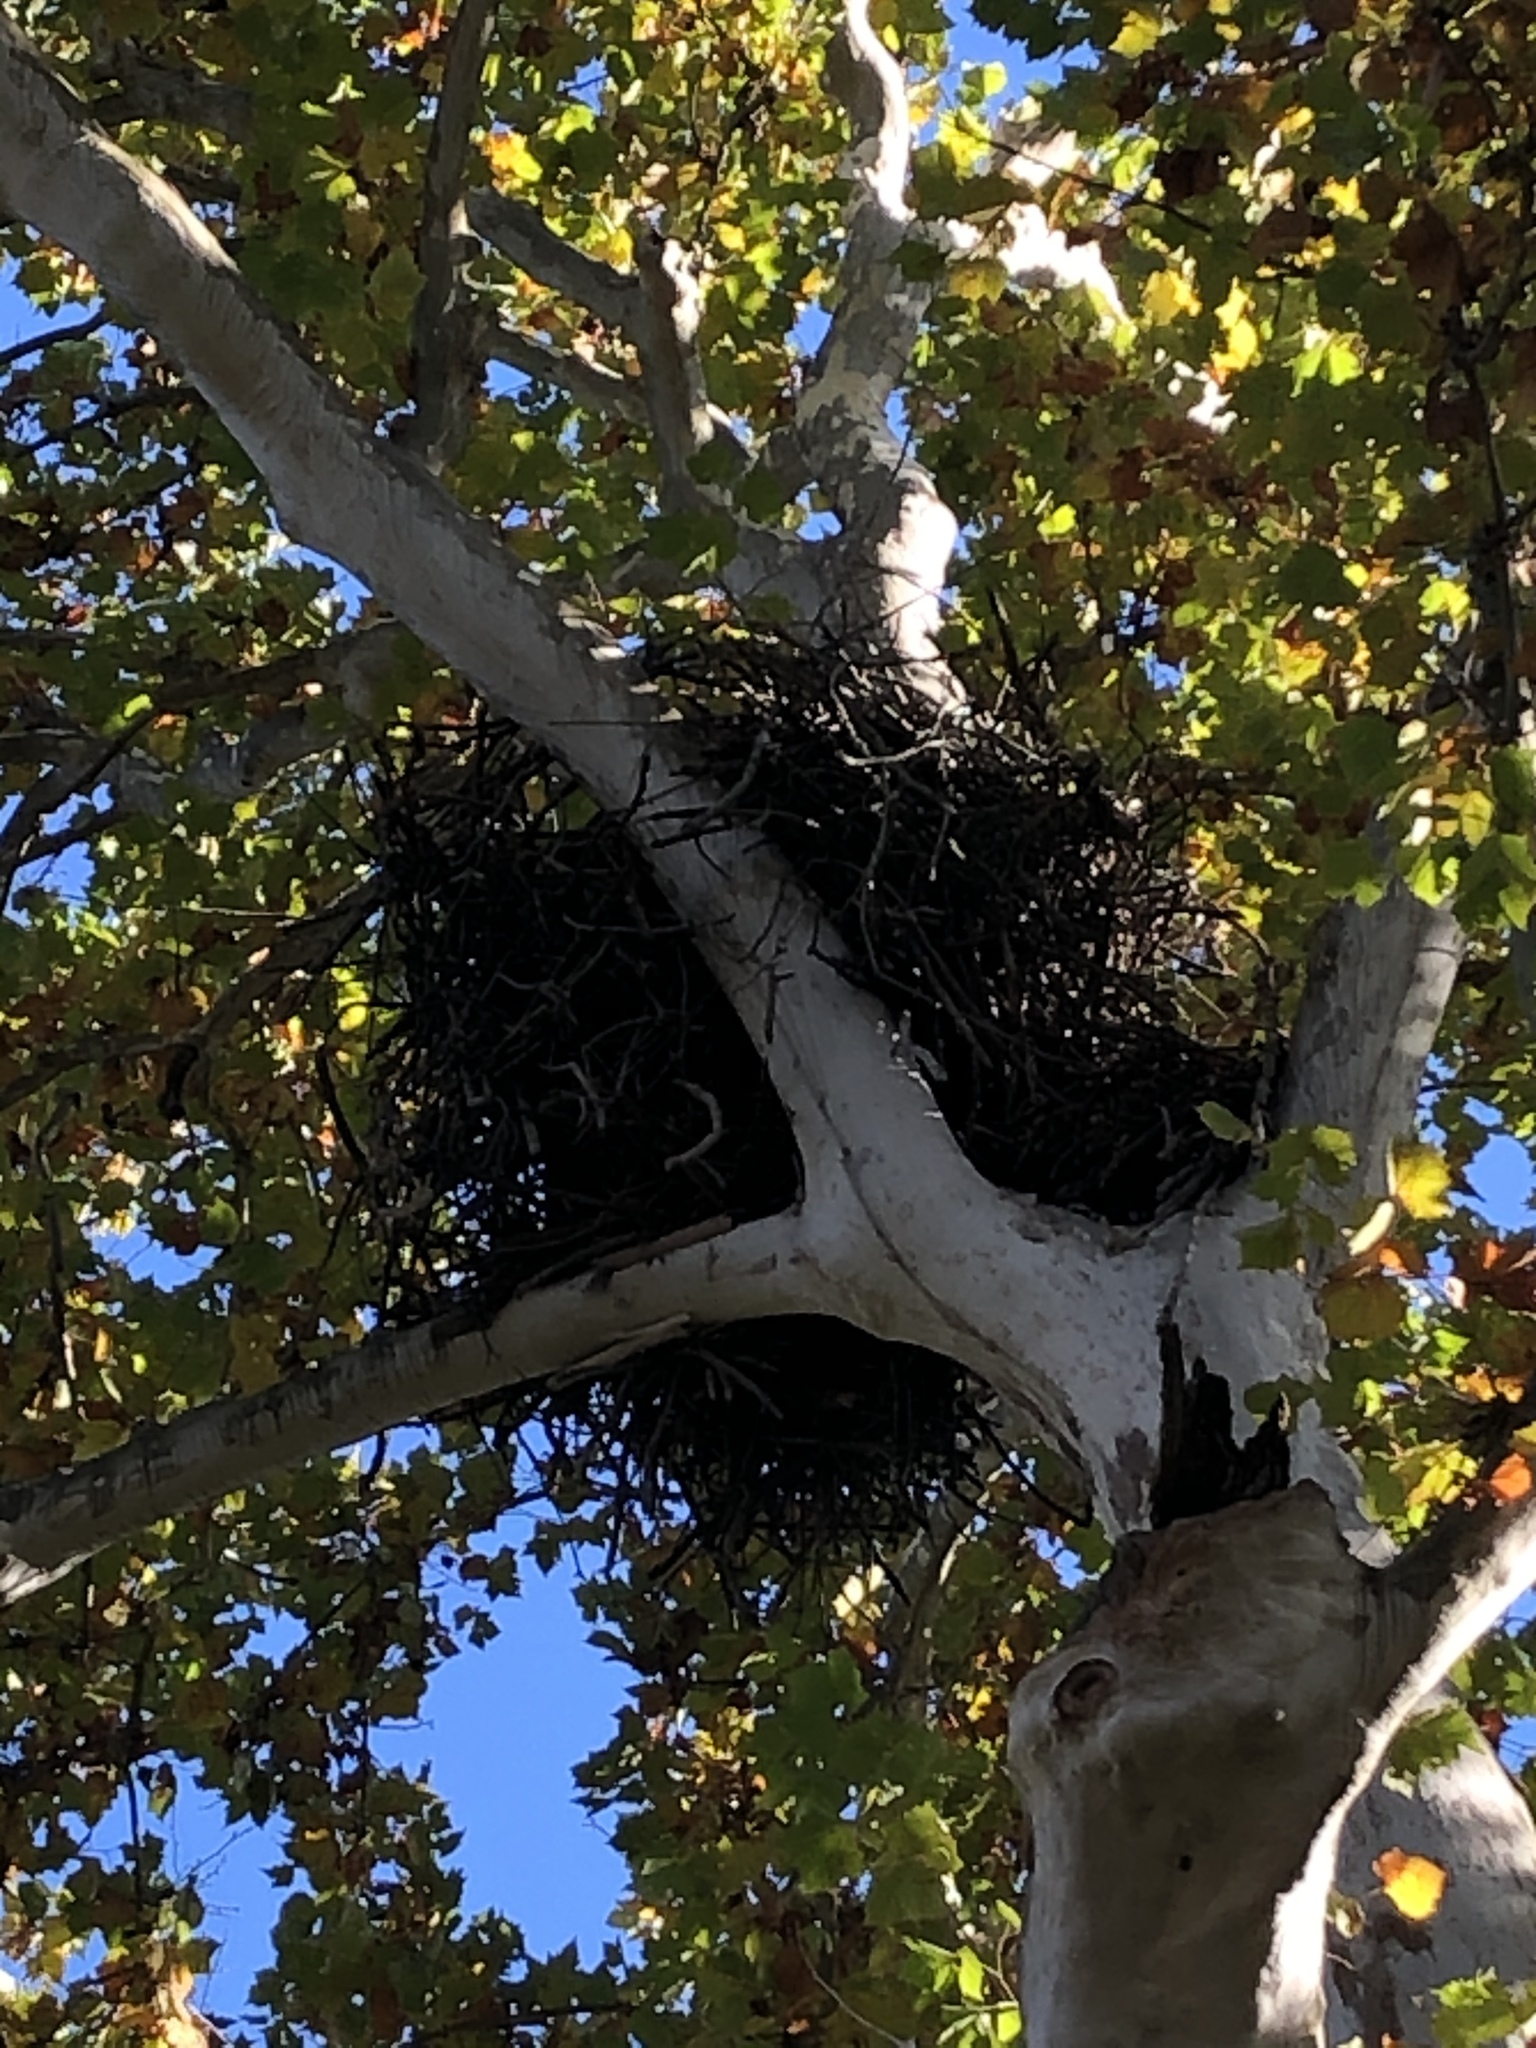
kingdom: Animalia
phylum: Chordata
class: Aves
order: Accipitriformes
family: Accipitridae
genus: Haliaeetus
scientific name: Haliaeetus leucocephalus
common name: Bald eagle
